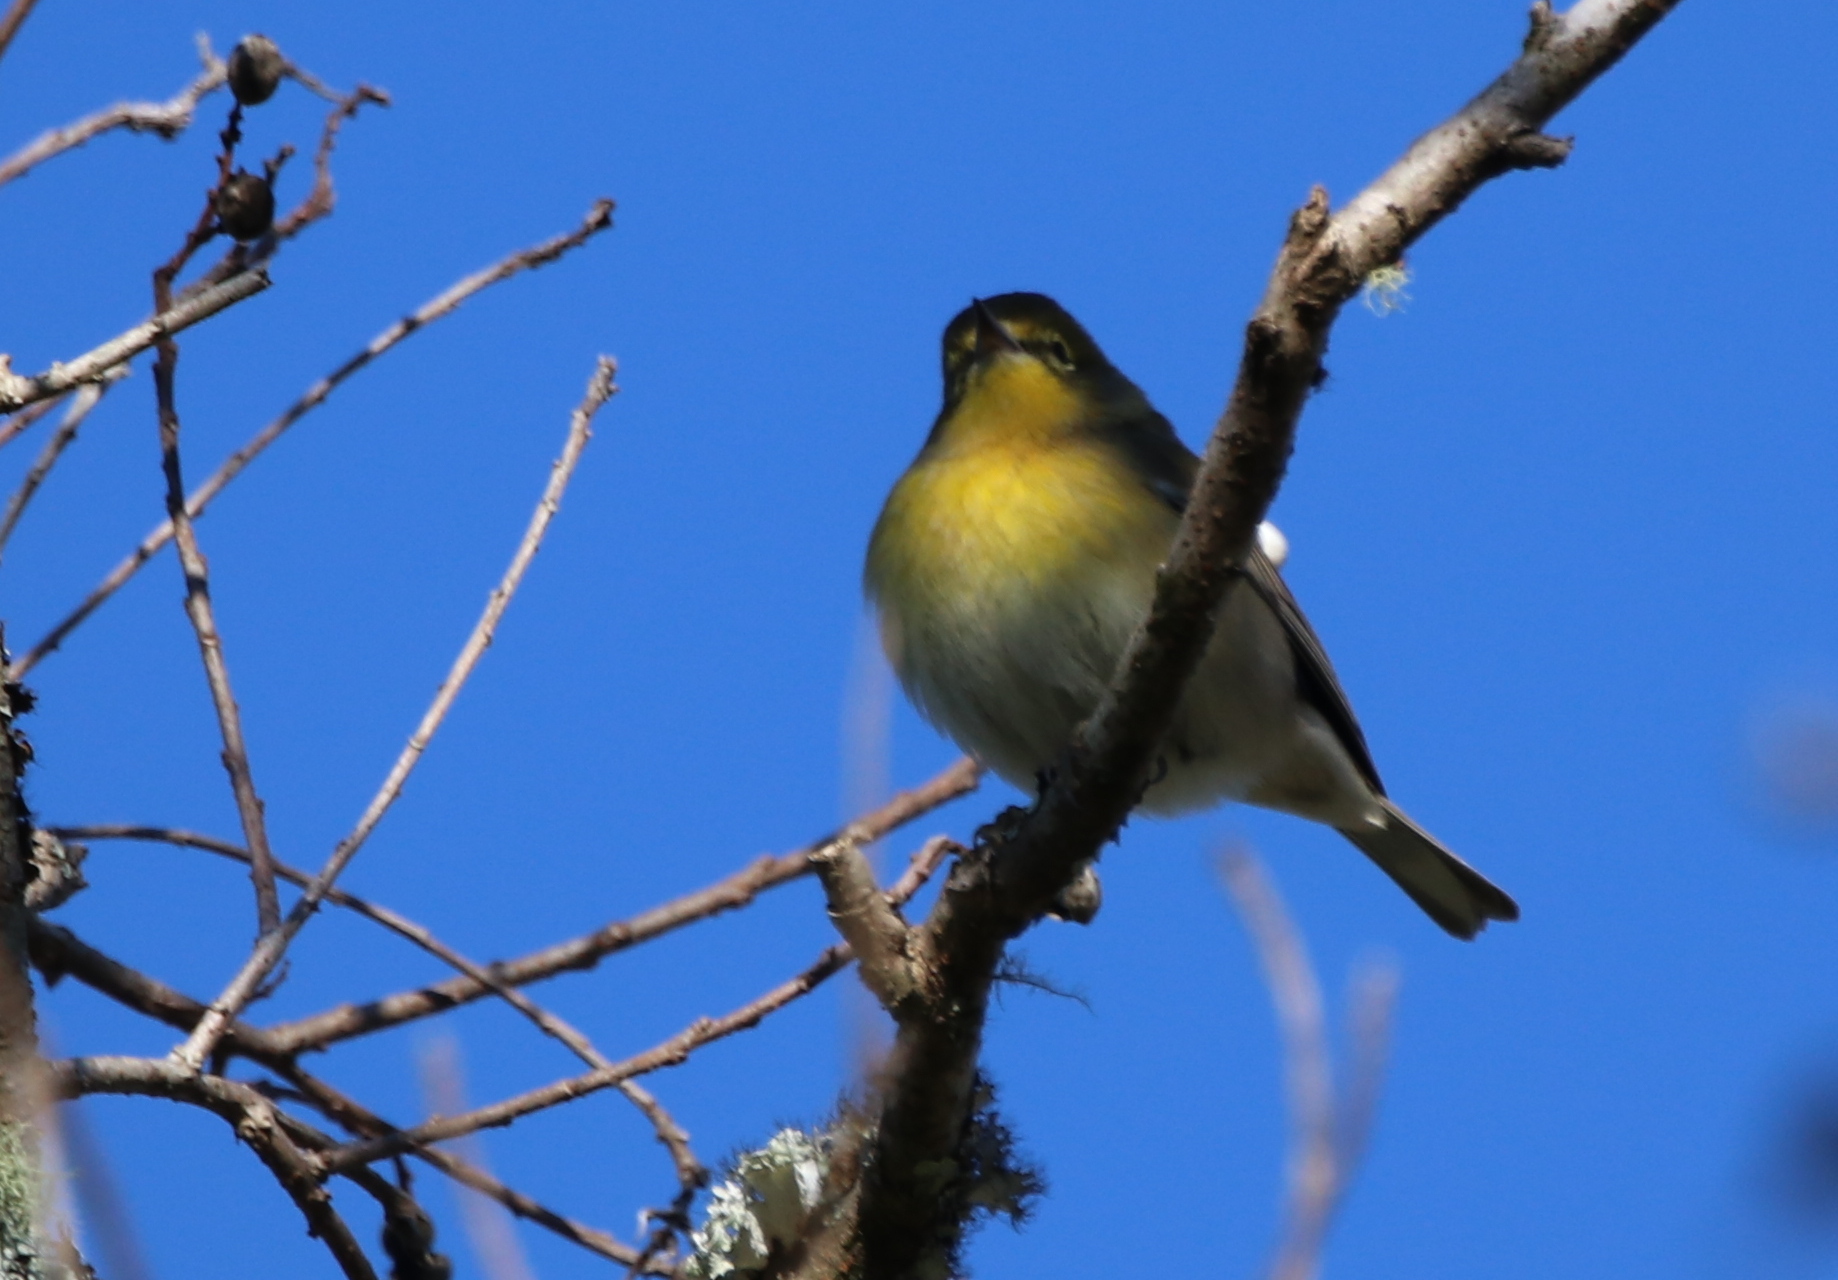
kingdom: Animalia
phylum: Chordata
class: Aves
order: Passeriformes
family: Parulidae
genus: Setophaga
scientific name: Setophaga pinus
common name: Pine warbler
